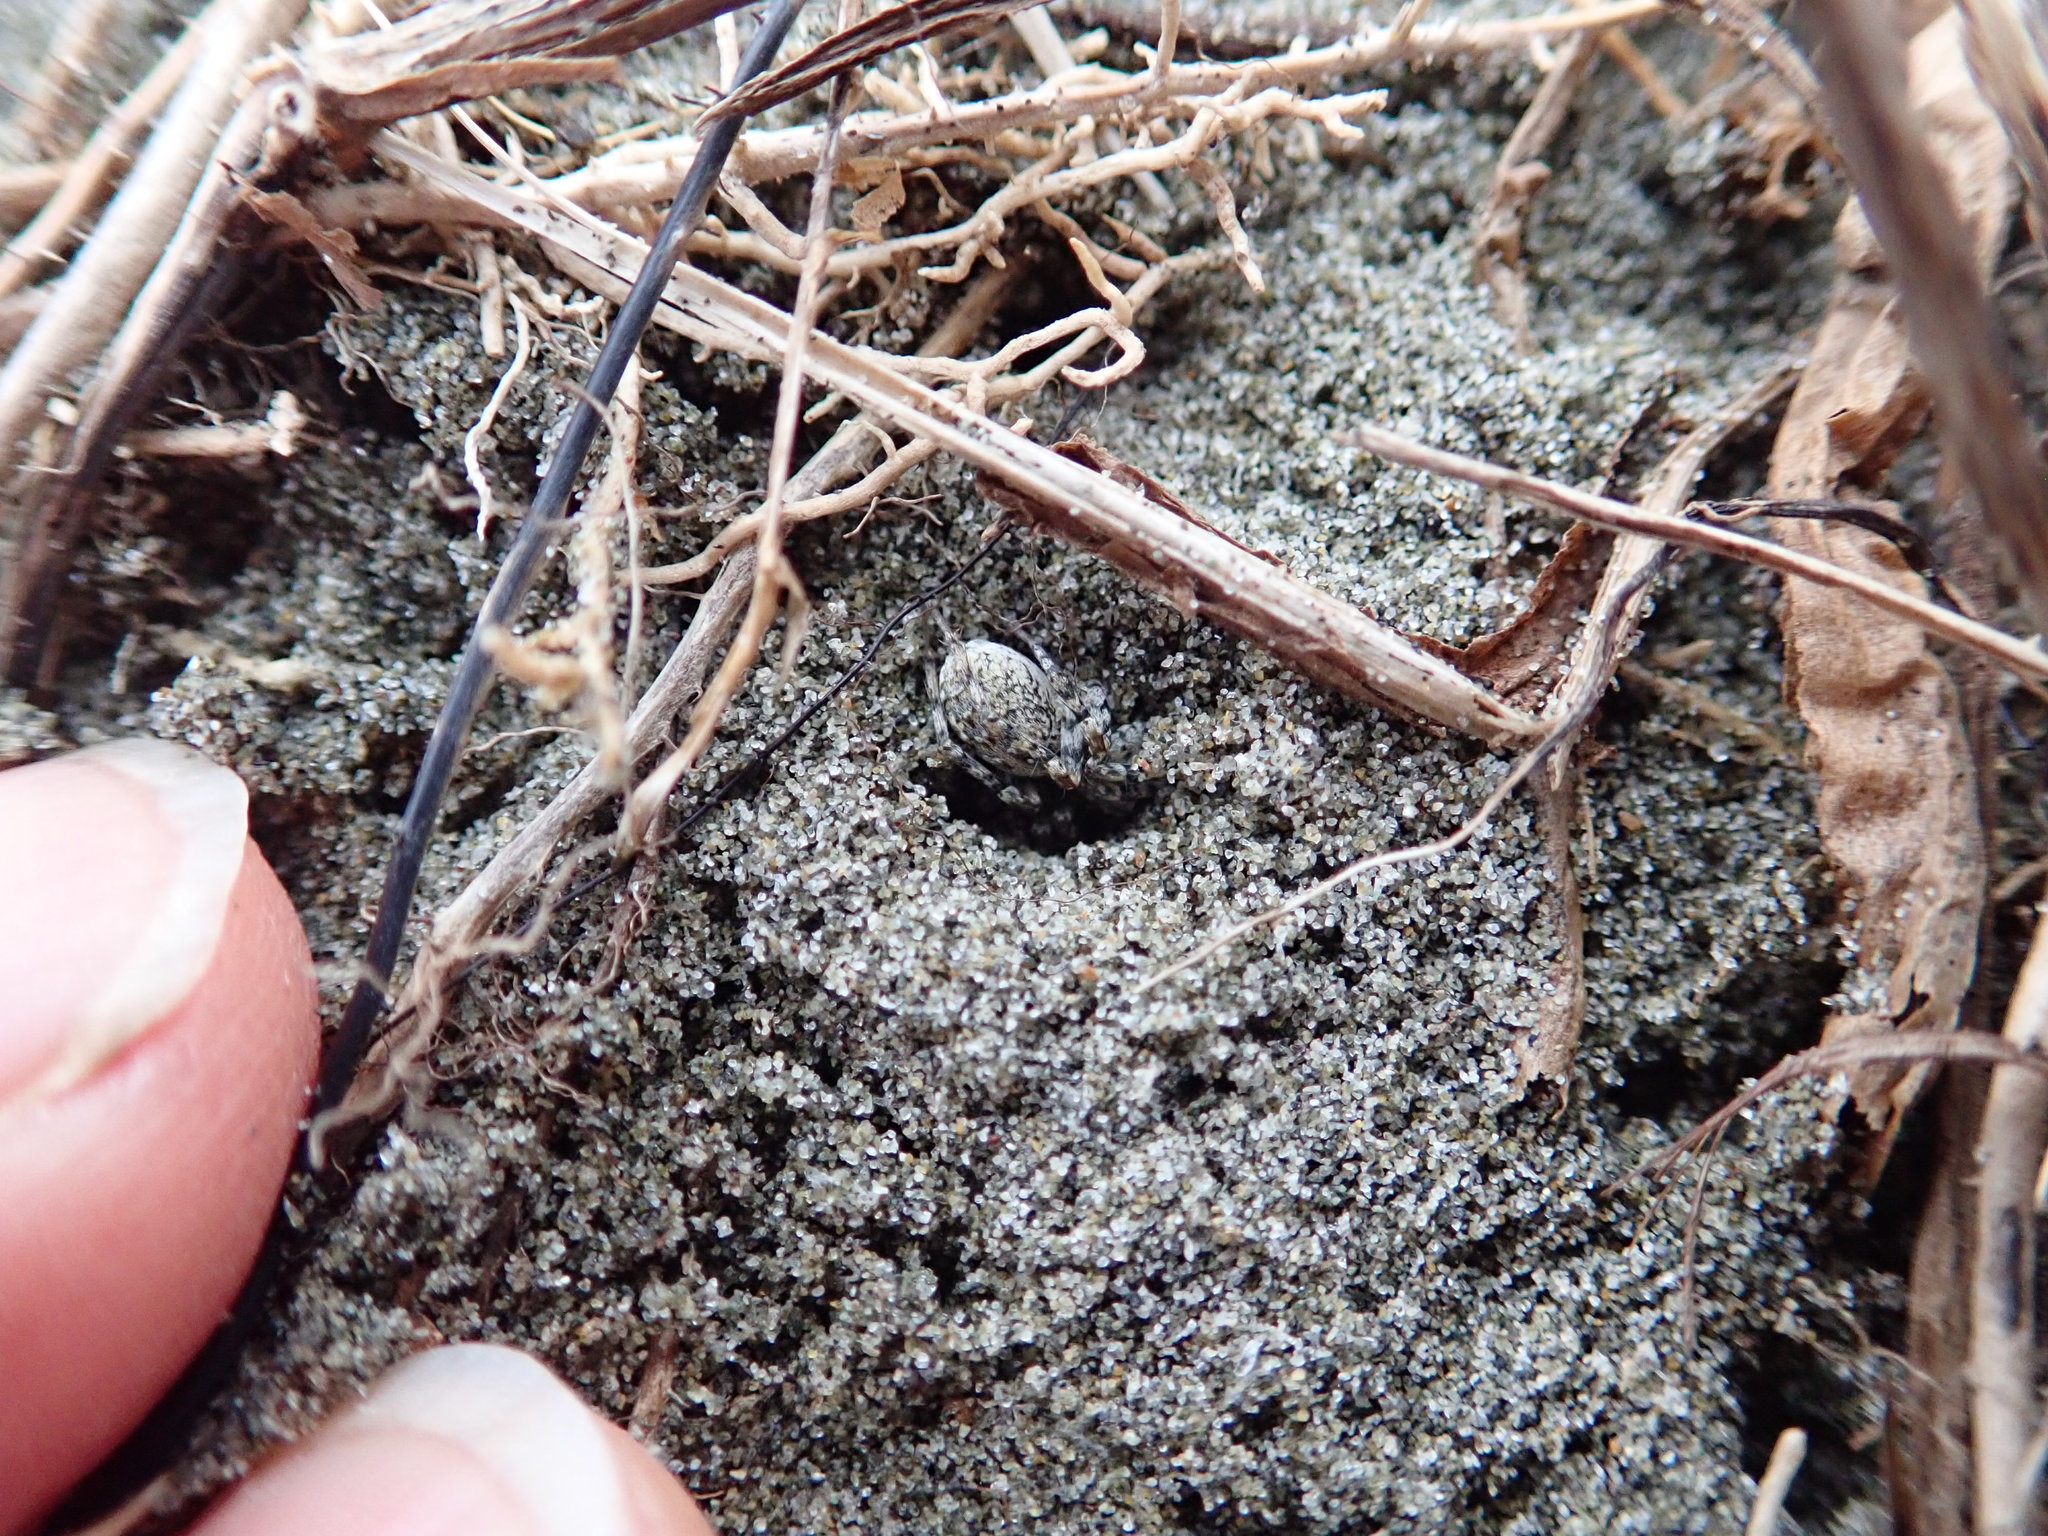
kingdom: Animalia
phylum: Arthropoda
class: Arachnida
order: Araneae
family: Lycosidae
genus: Anoteropsis
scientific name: Anoteropsis litoralis
